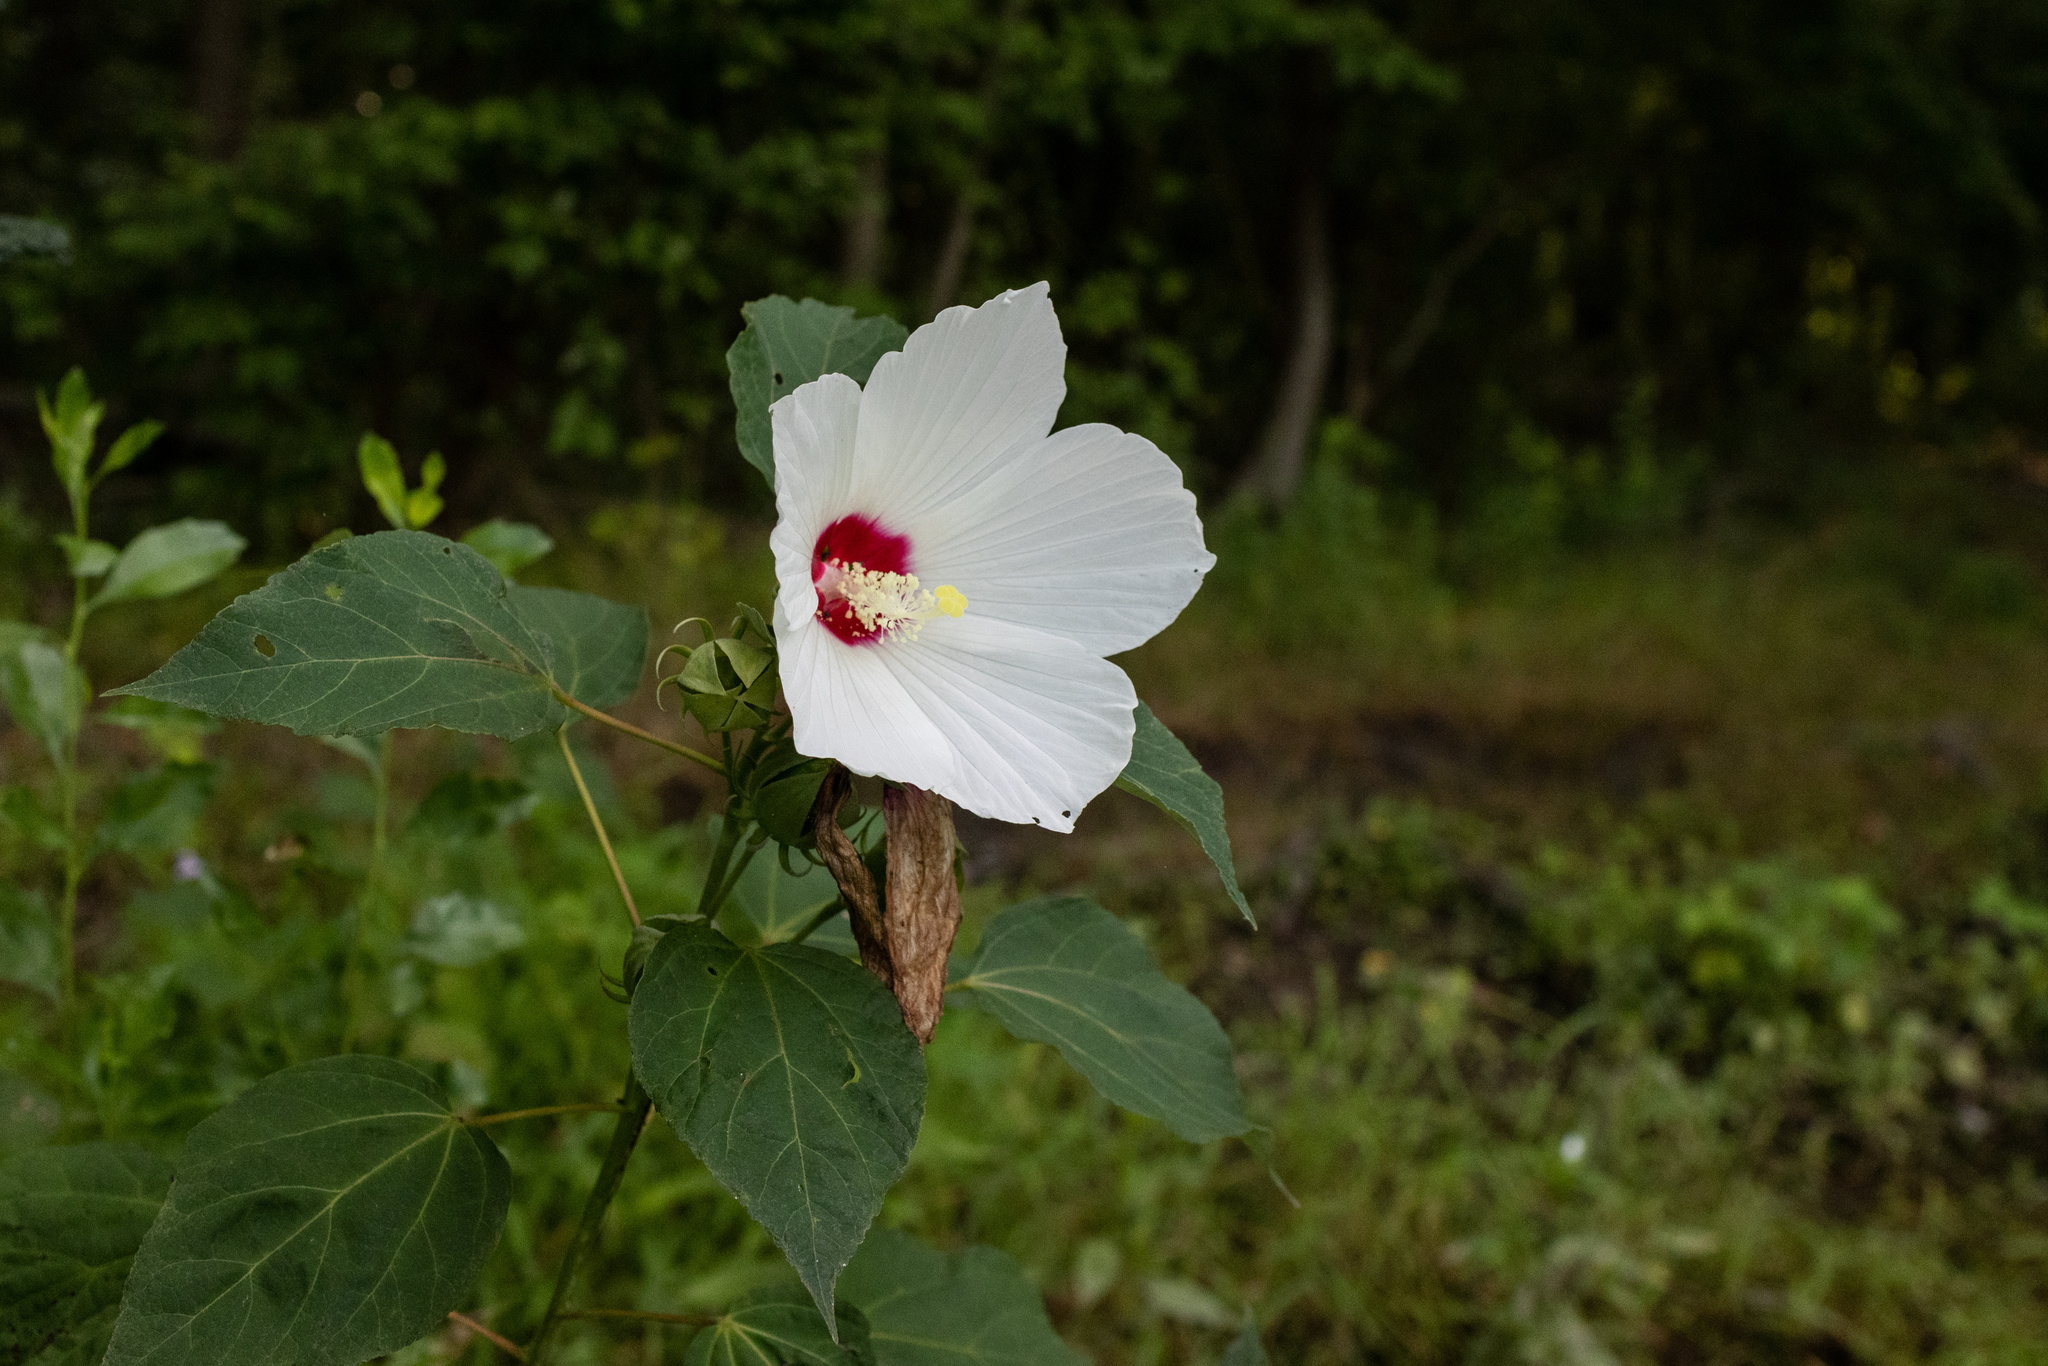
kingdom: Plantae
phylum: Tracheophyta
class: Magnoliopsida
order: Malvales
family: Malvaceae
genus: Hibiscus
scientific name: Hibiscus moscheutos
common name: Common rose-mallow
